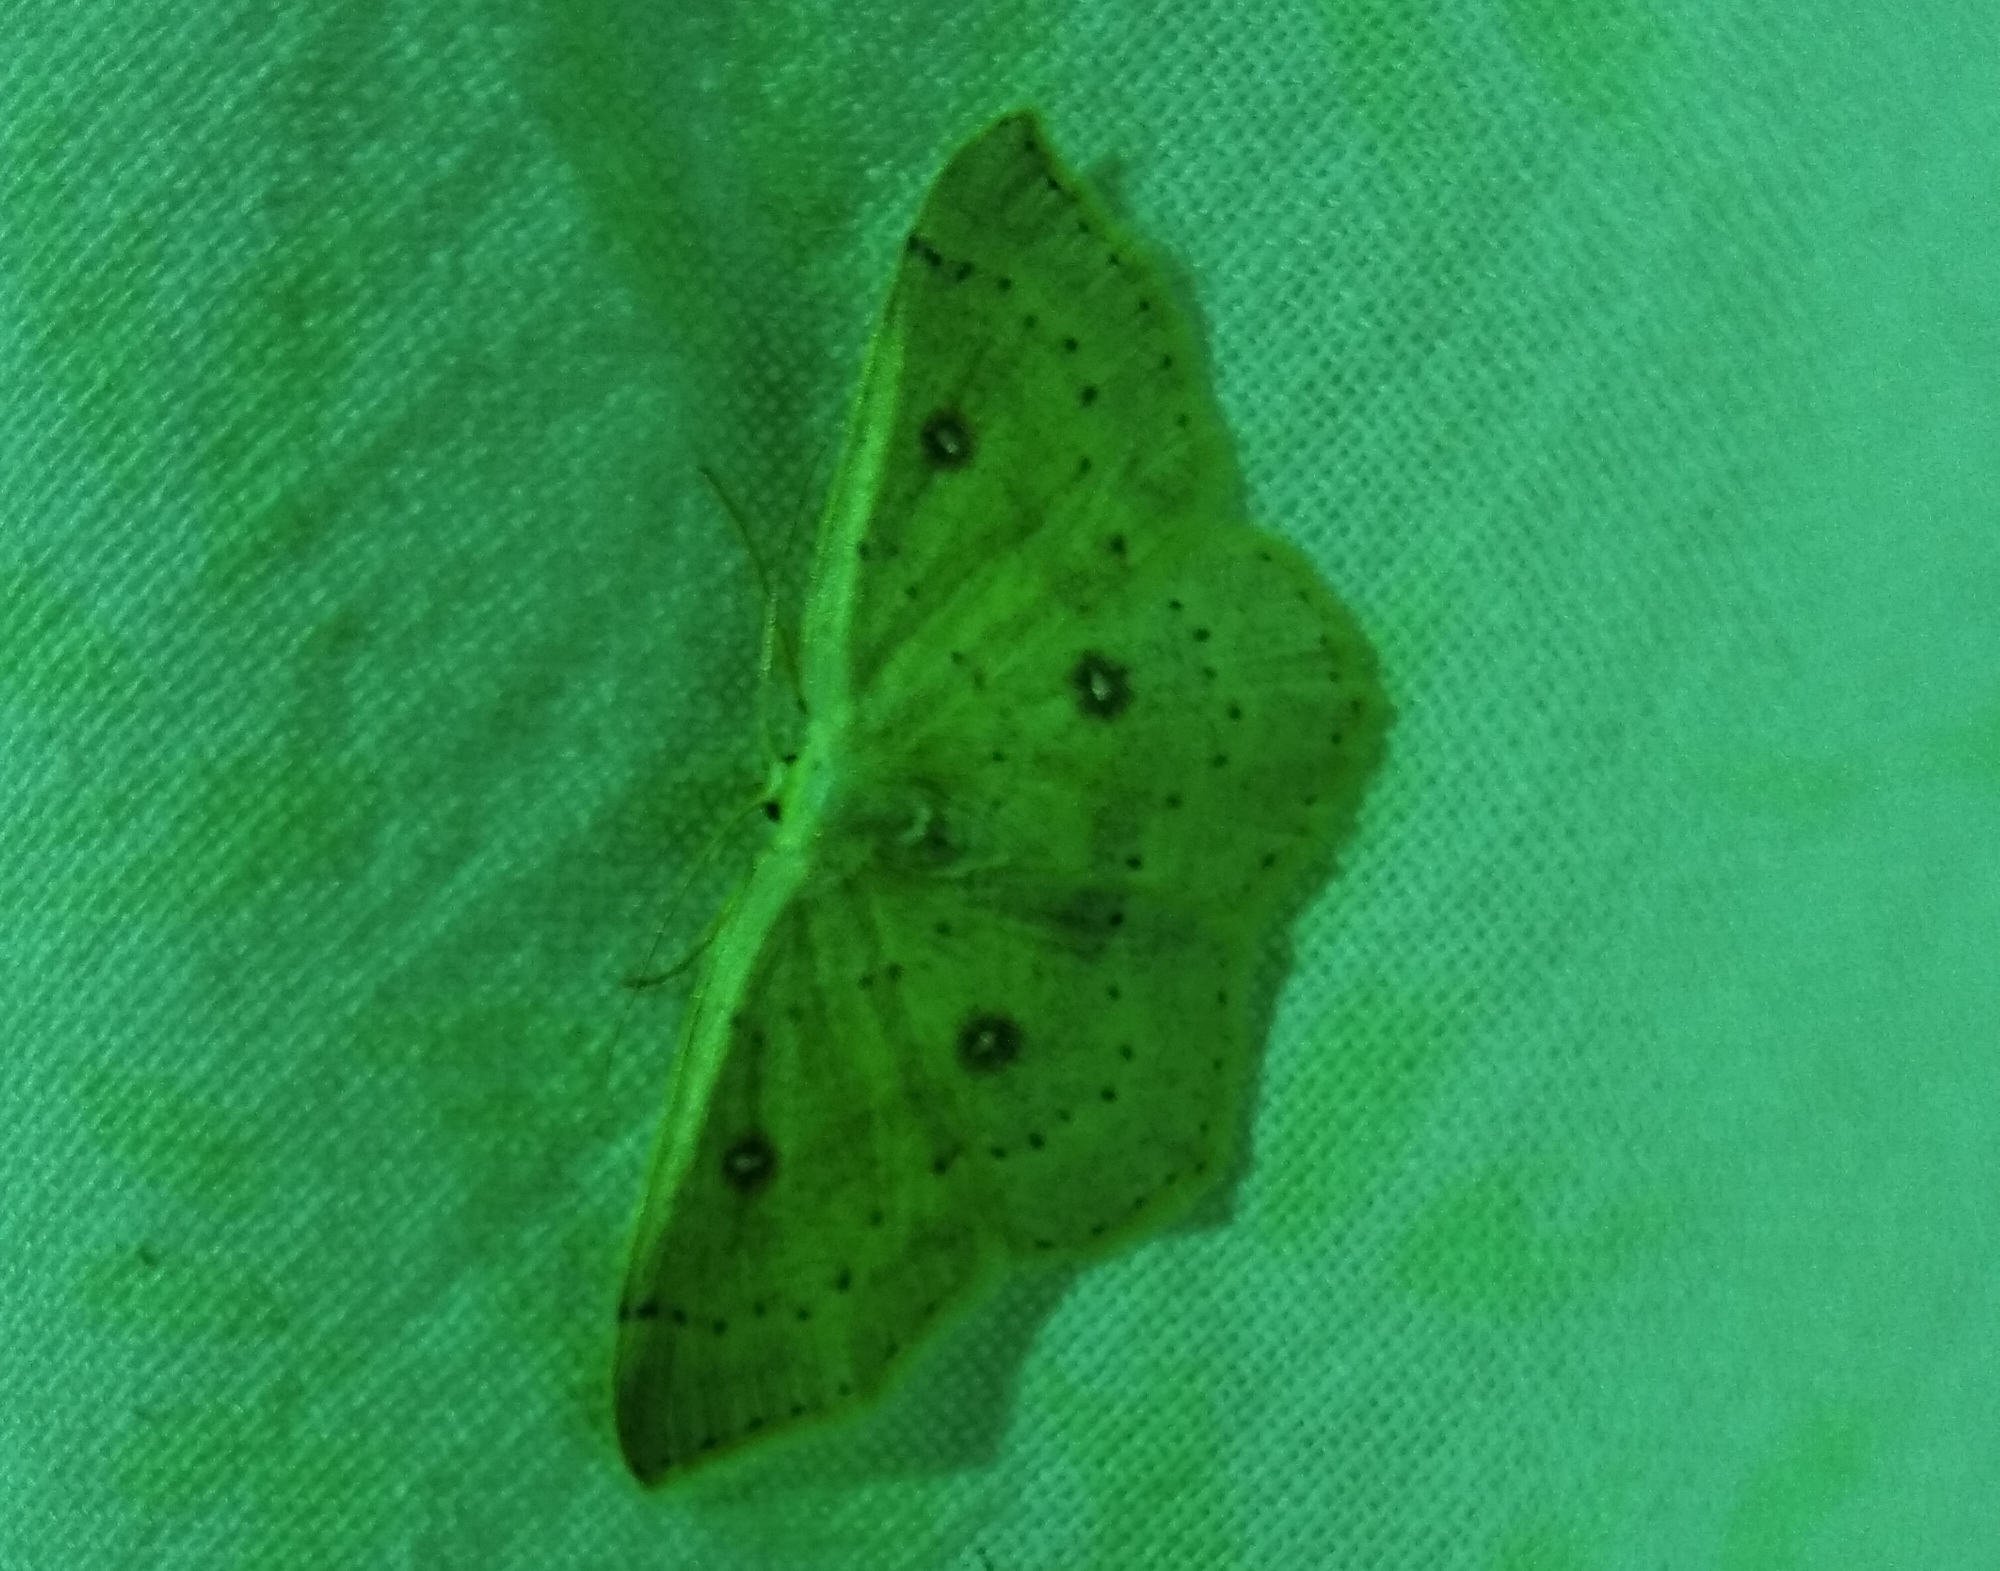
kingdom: Animalia
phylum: Arthropoda
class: Insecta
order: Lepidoptera
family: Geometridae
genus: Cyclophora
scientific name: Cyclophora albipunctata
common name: Birch mocha
